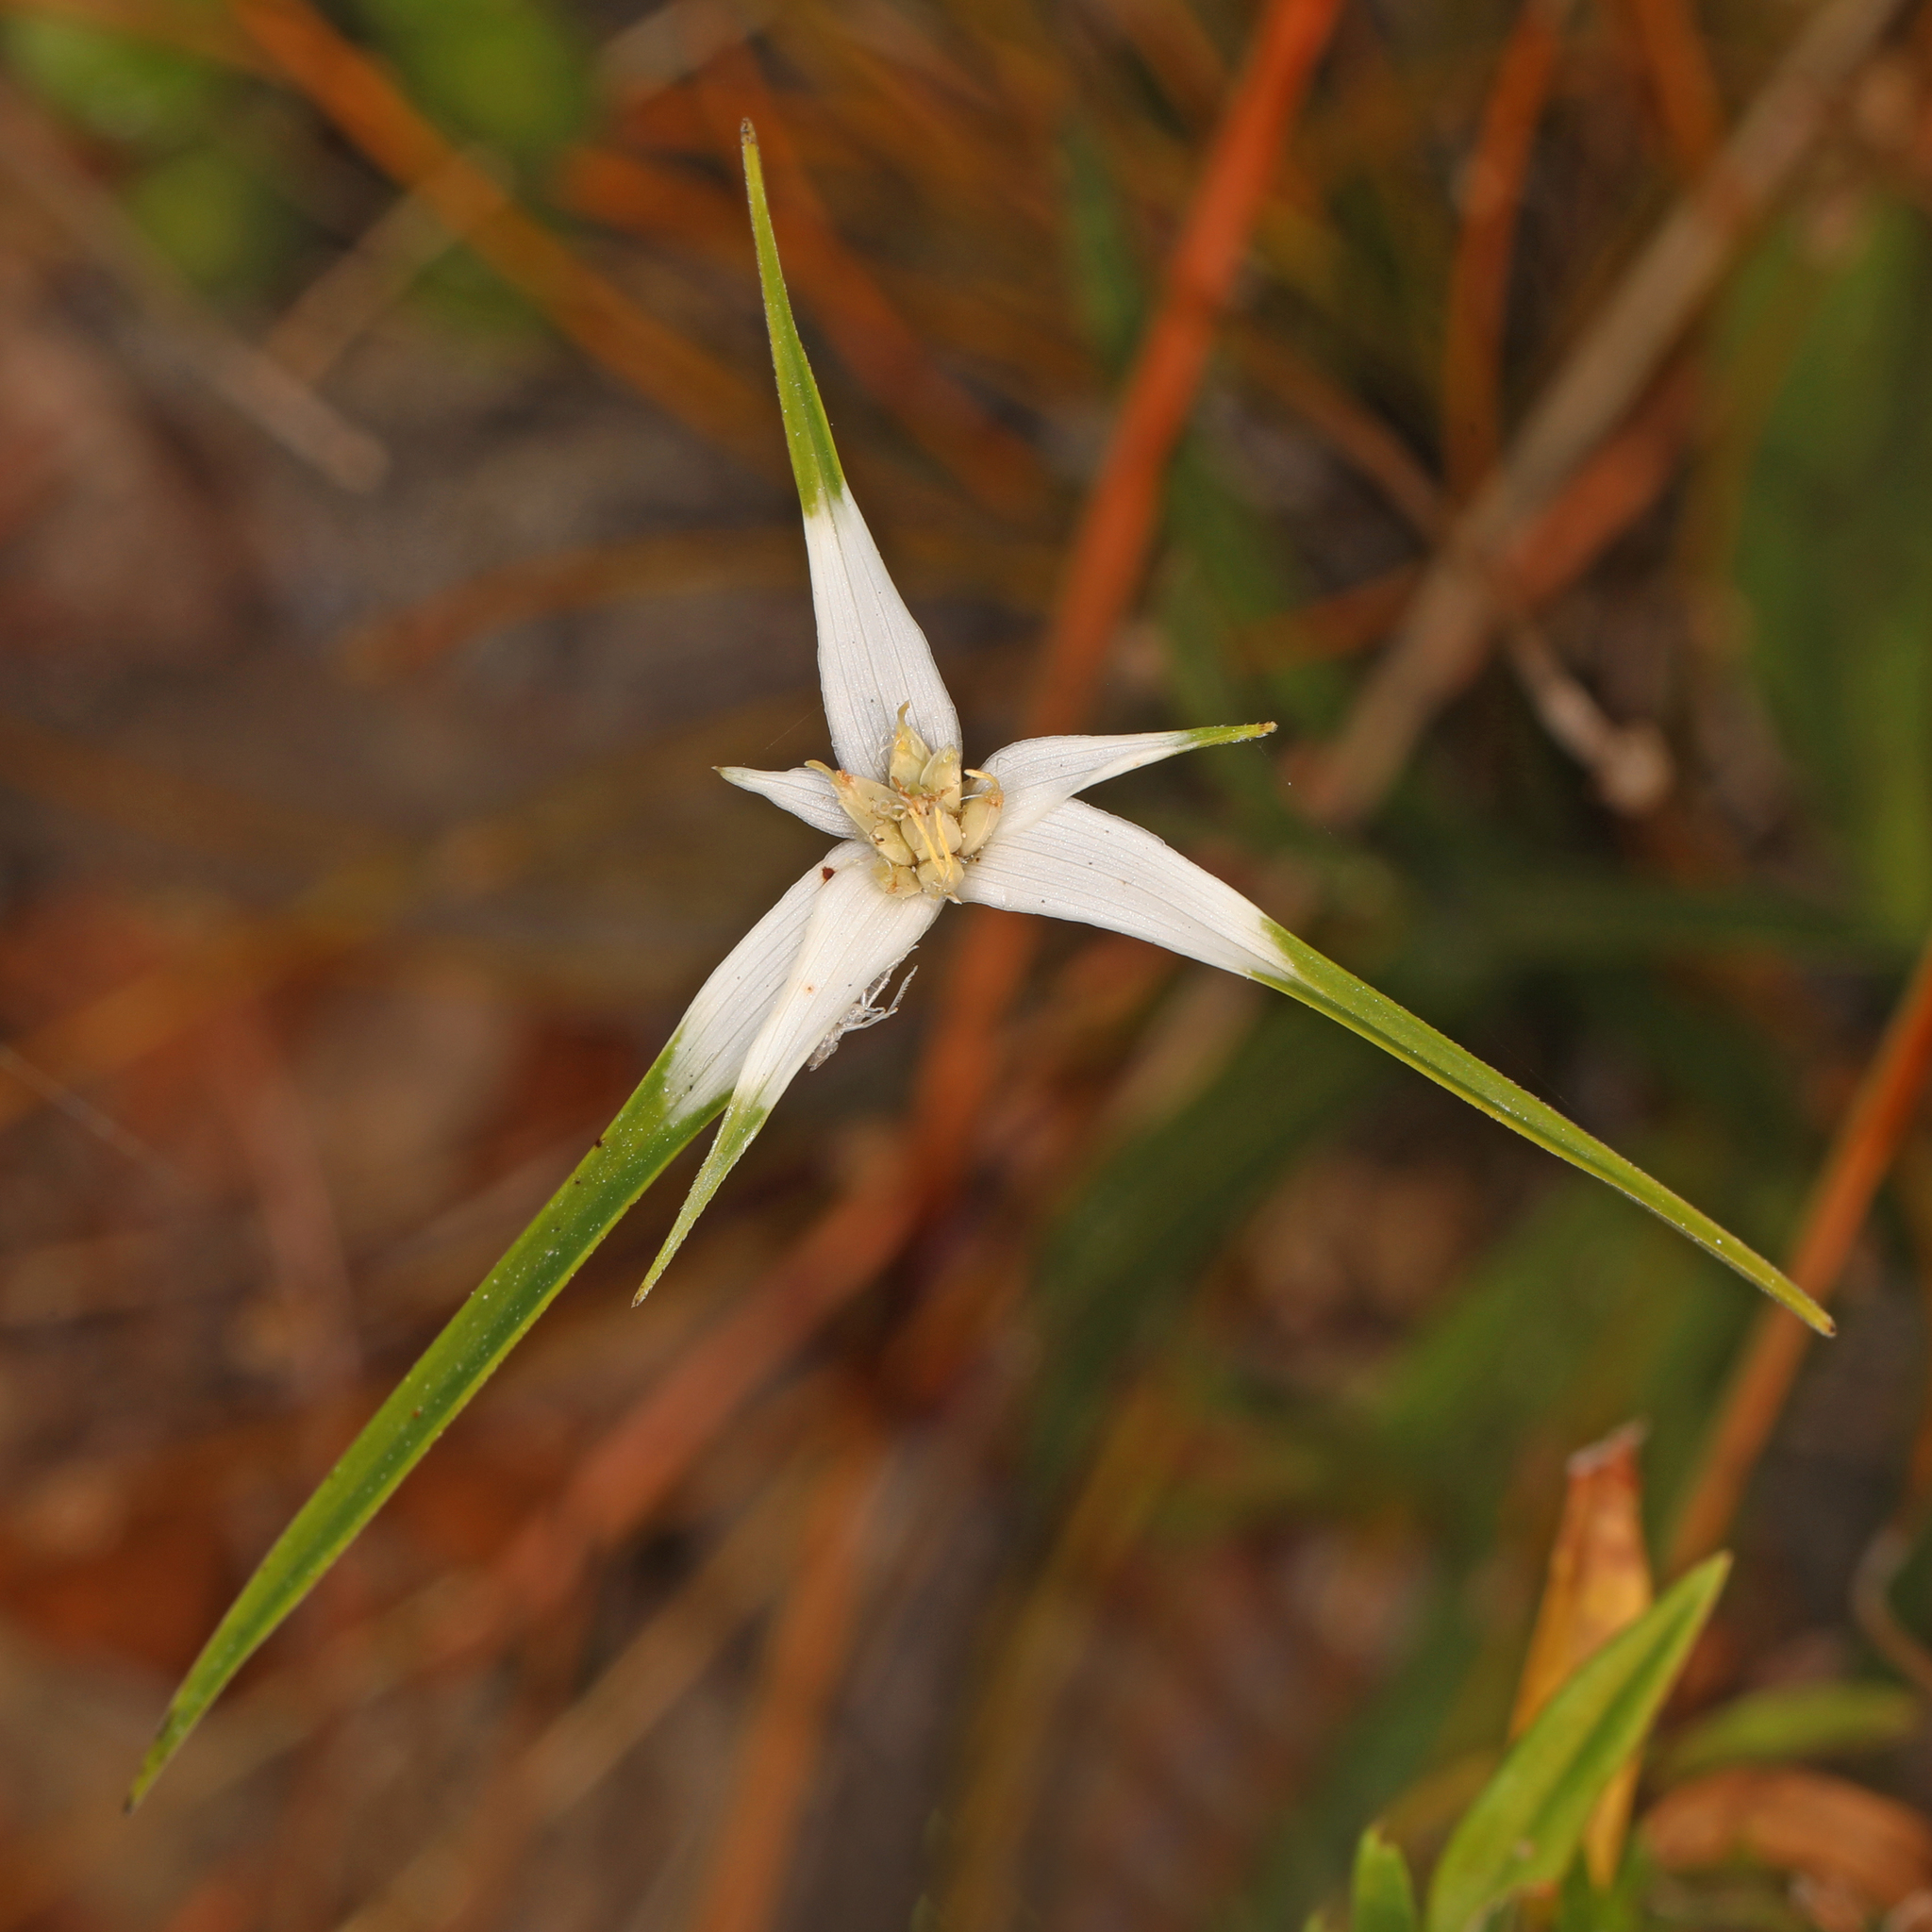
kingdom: Plantae
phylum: Tracheophyta
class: Liliopsida
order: Poales
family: Cyperaceae
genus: Rhynchospora
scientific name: Rhynchospora colorata
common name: Star sedge
